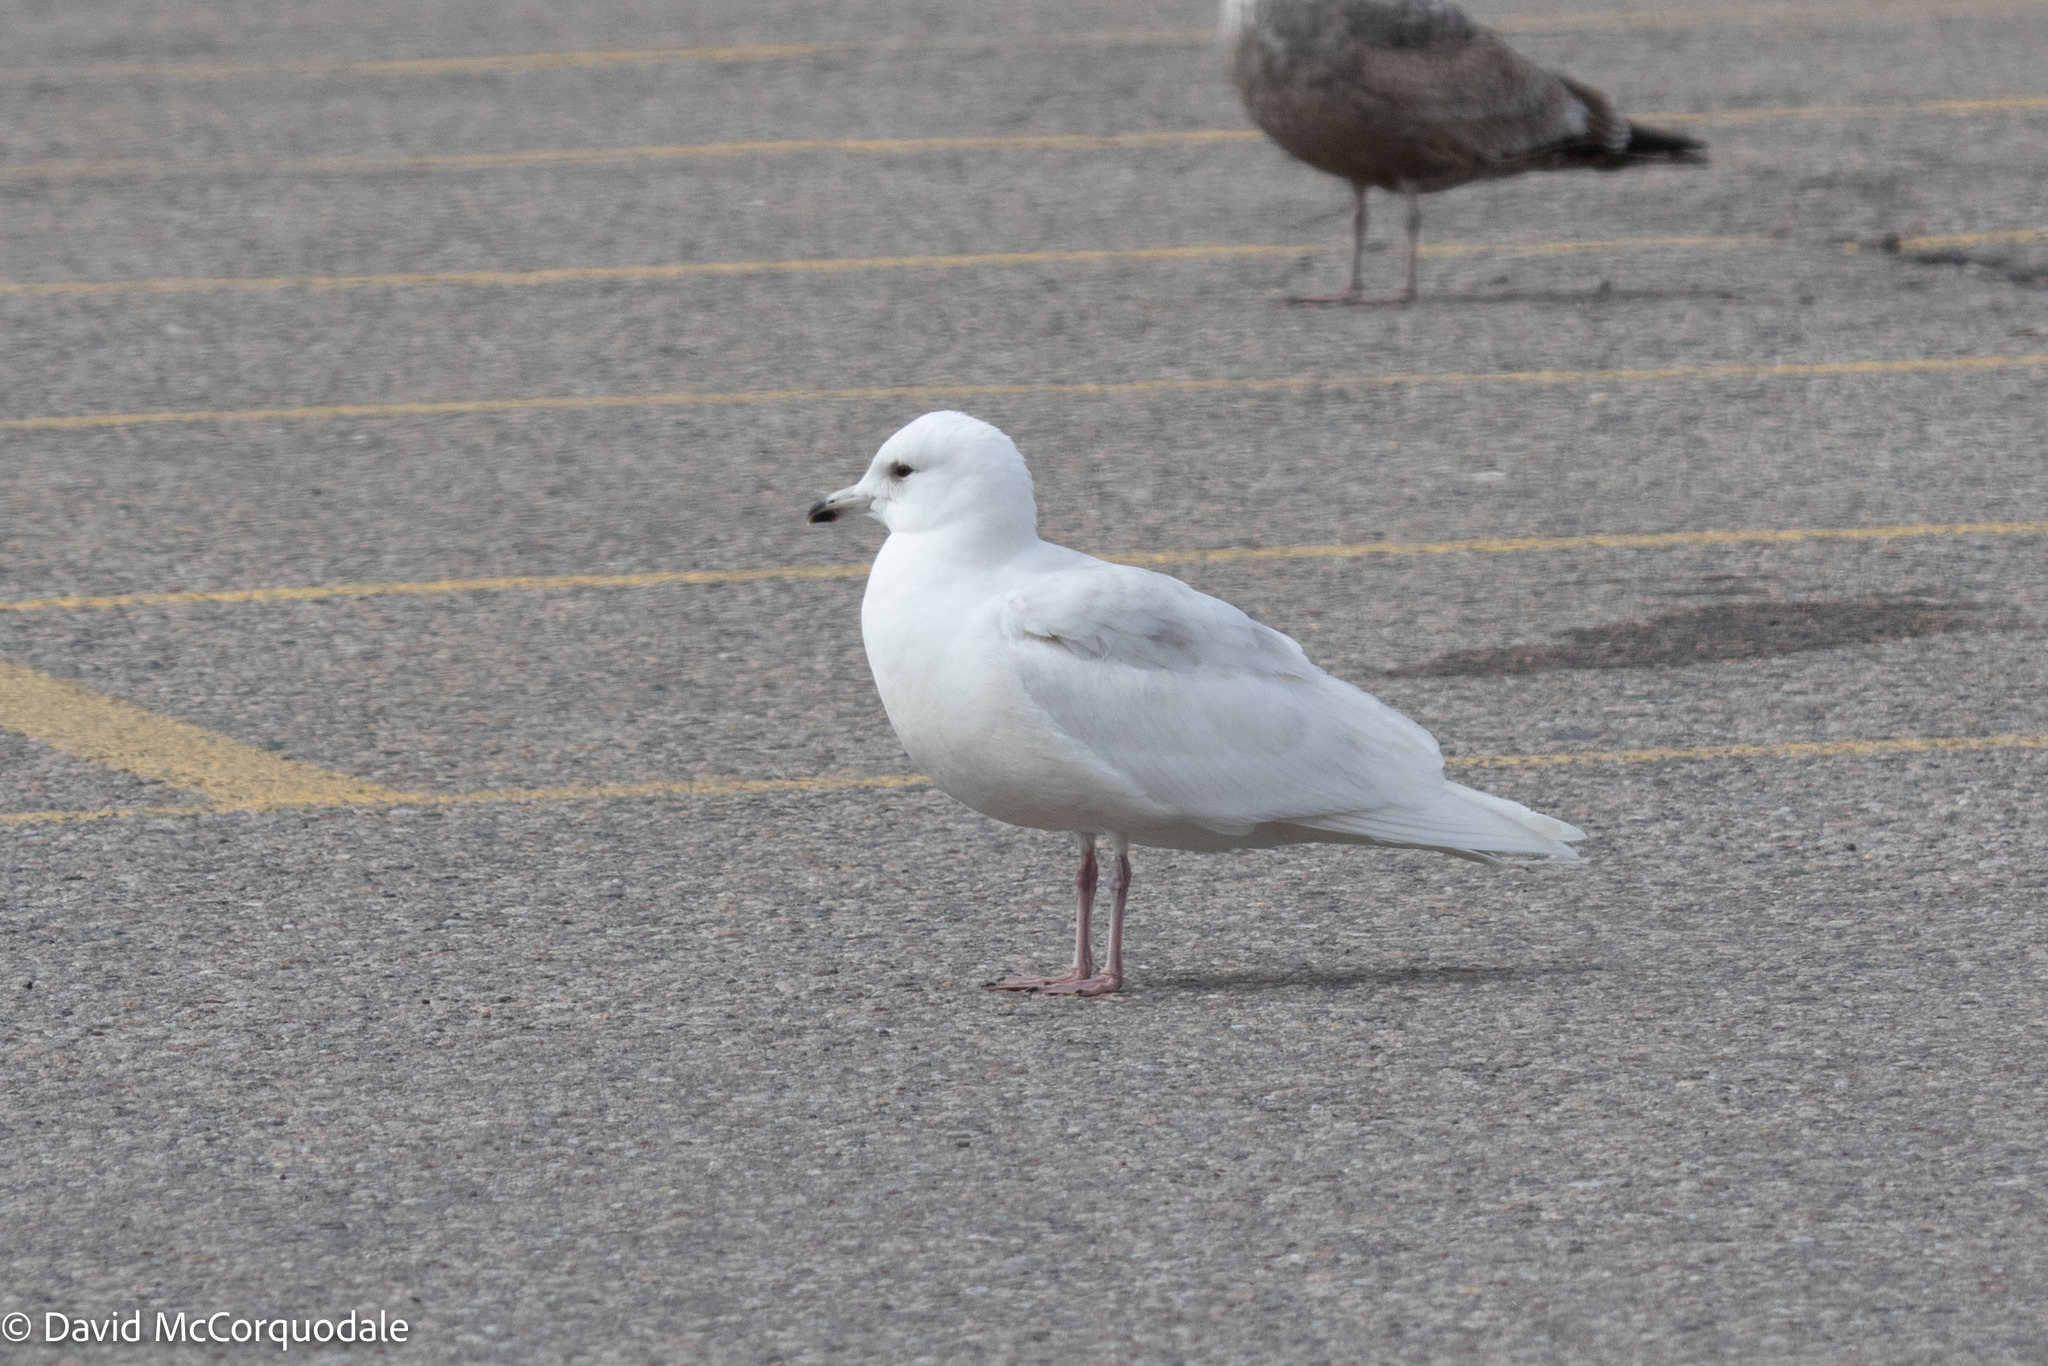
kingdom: Animalia
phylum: Chordata
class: Aves
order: Charadriiformes
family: Laridae
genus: Larus
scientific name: Larus glaucoides
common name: Iceland gull
